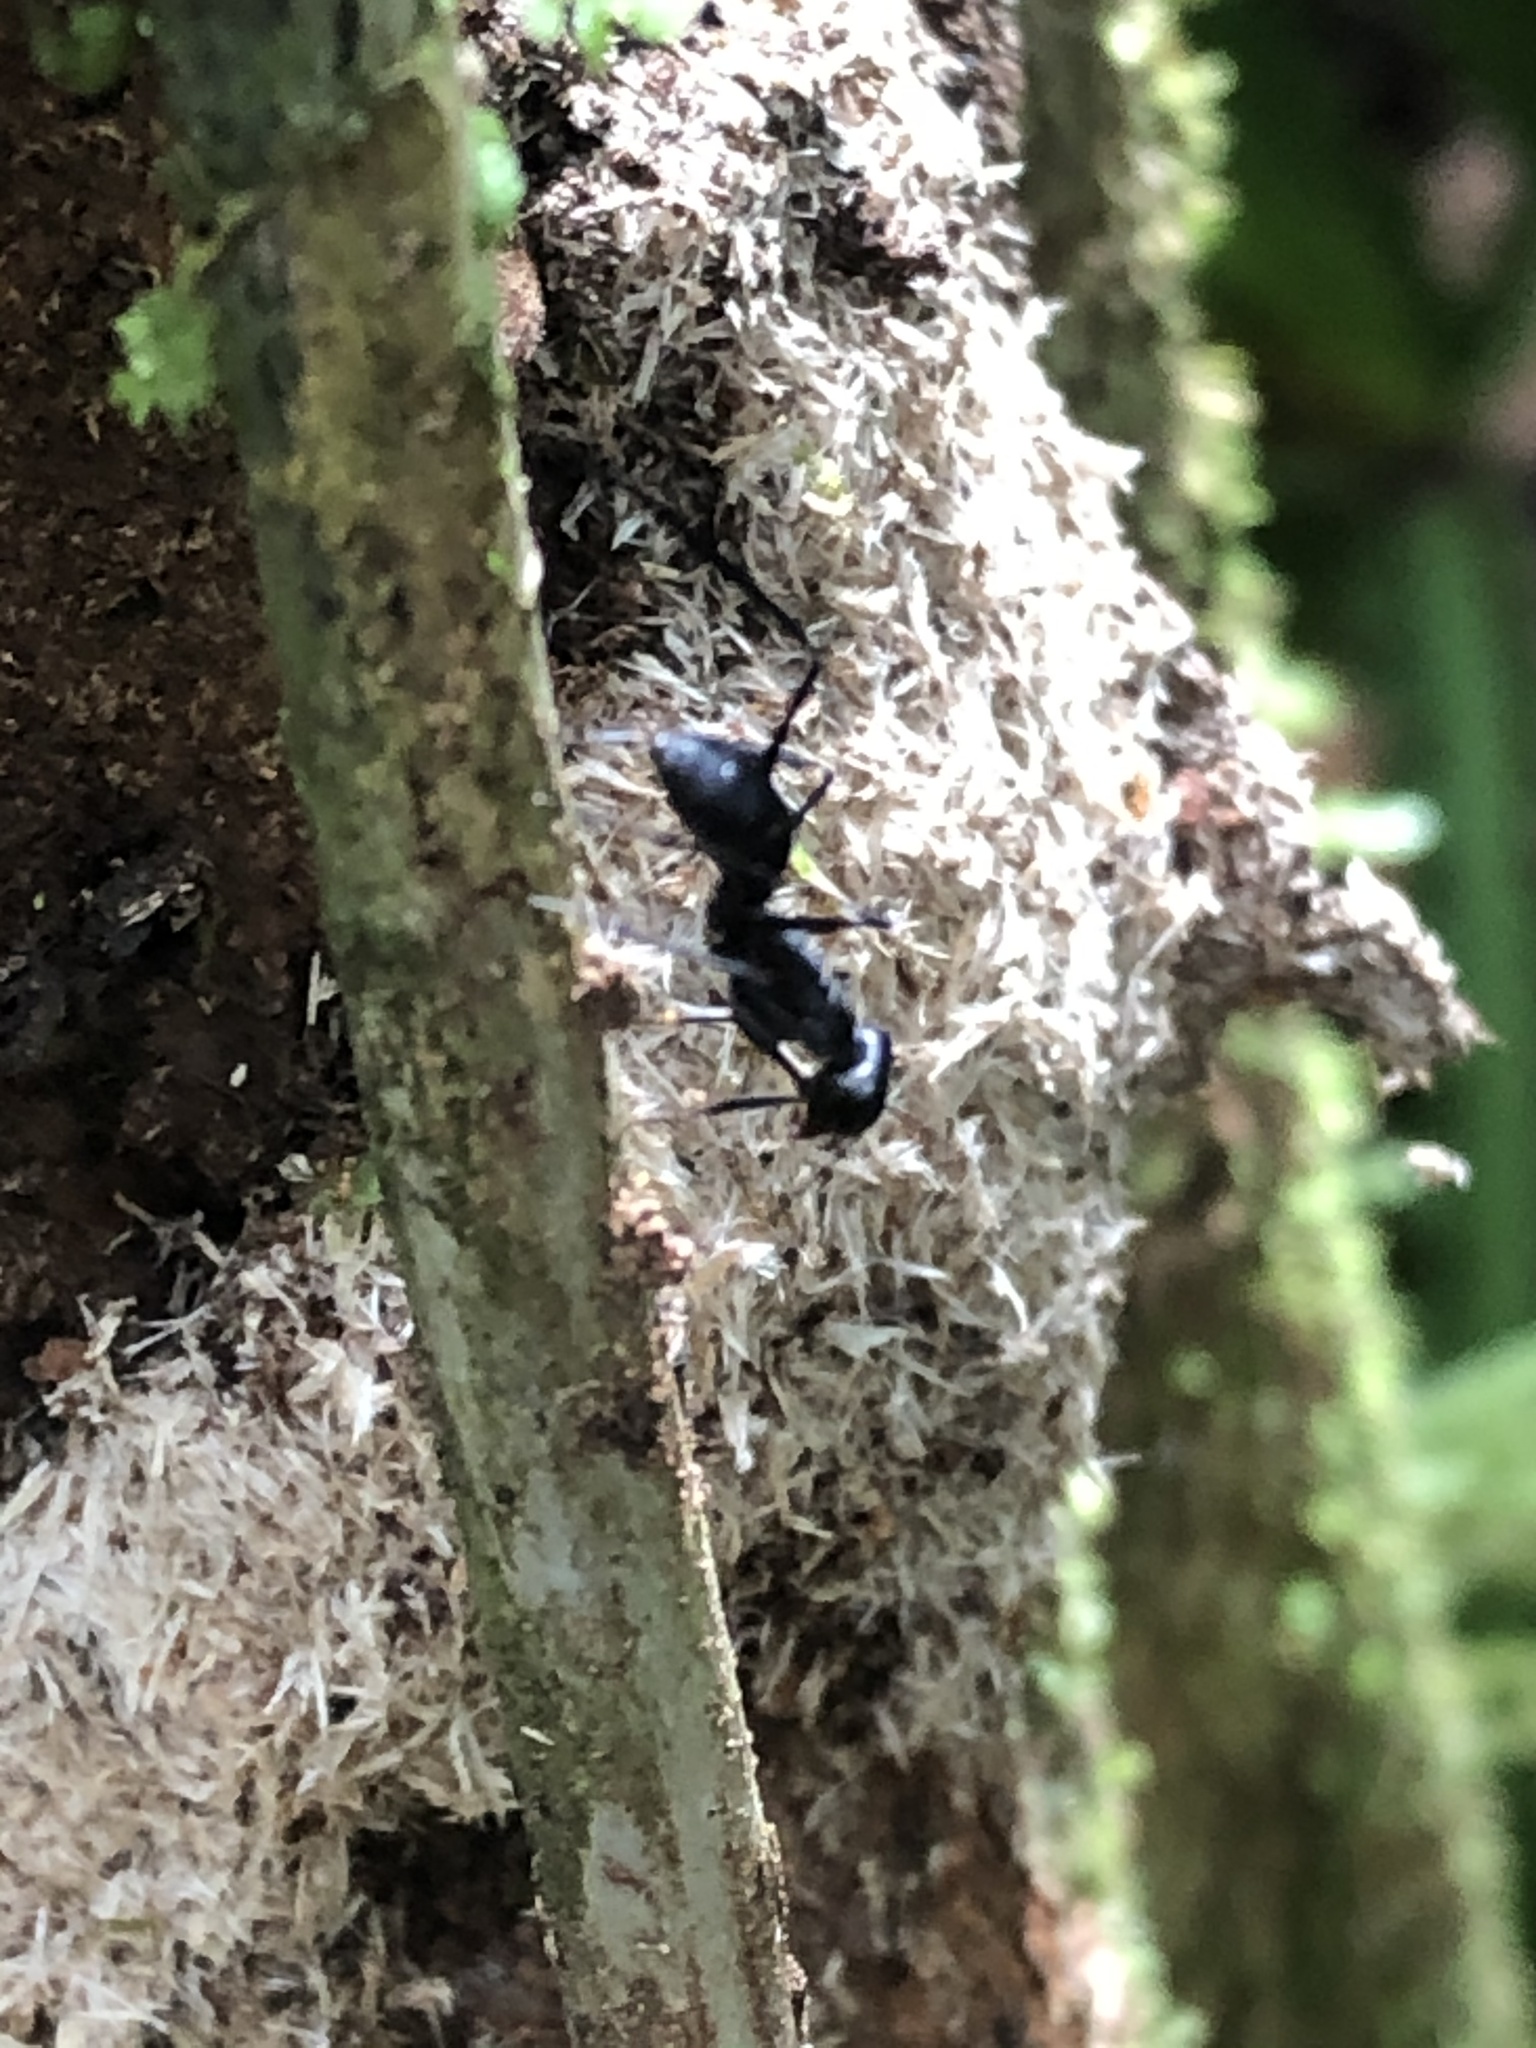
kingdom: Animalia
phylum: Arthropoda
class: Insecta
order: Hymenoptera
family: Formicidae
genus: Gigantiops
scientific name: Gigantiops destructor
